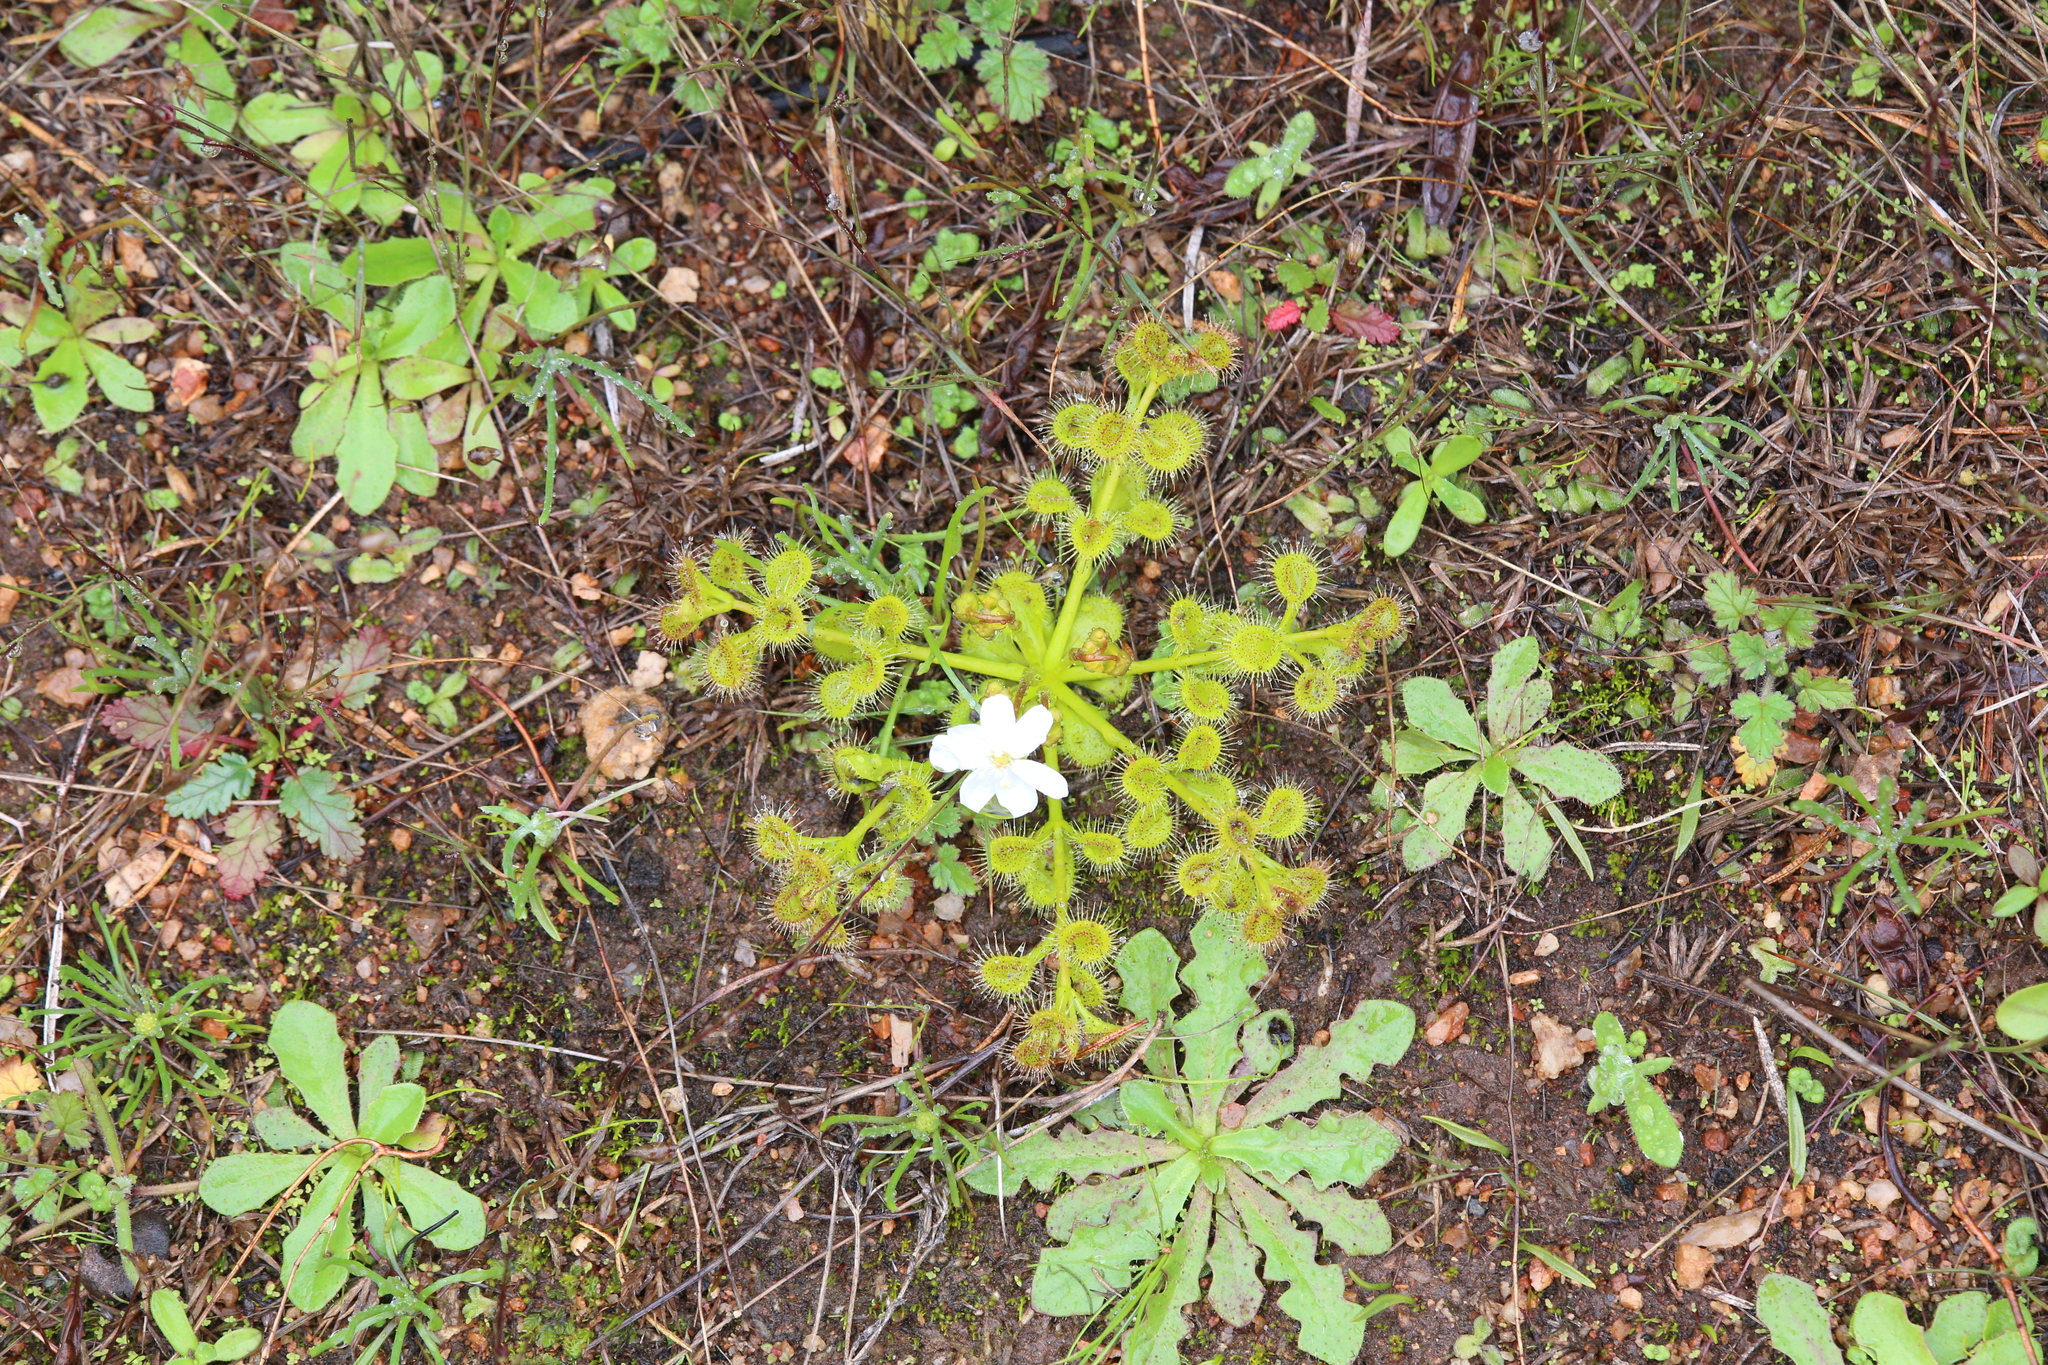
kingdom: Plantae
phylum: Tracheophyta
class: Magnoliopsida
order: Caryophyllales
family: Droseraceae
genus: Drosera
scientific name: Drosera rupicola
